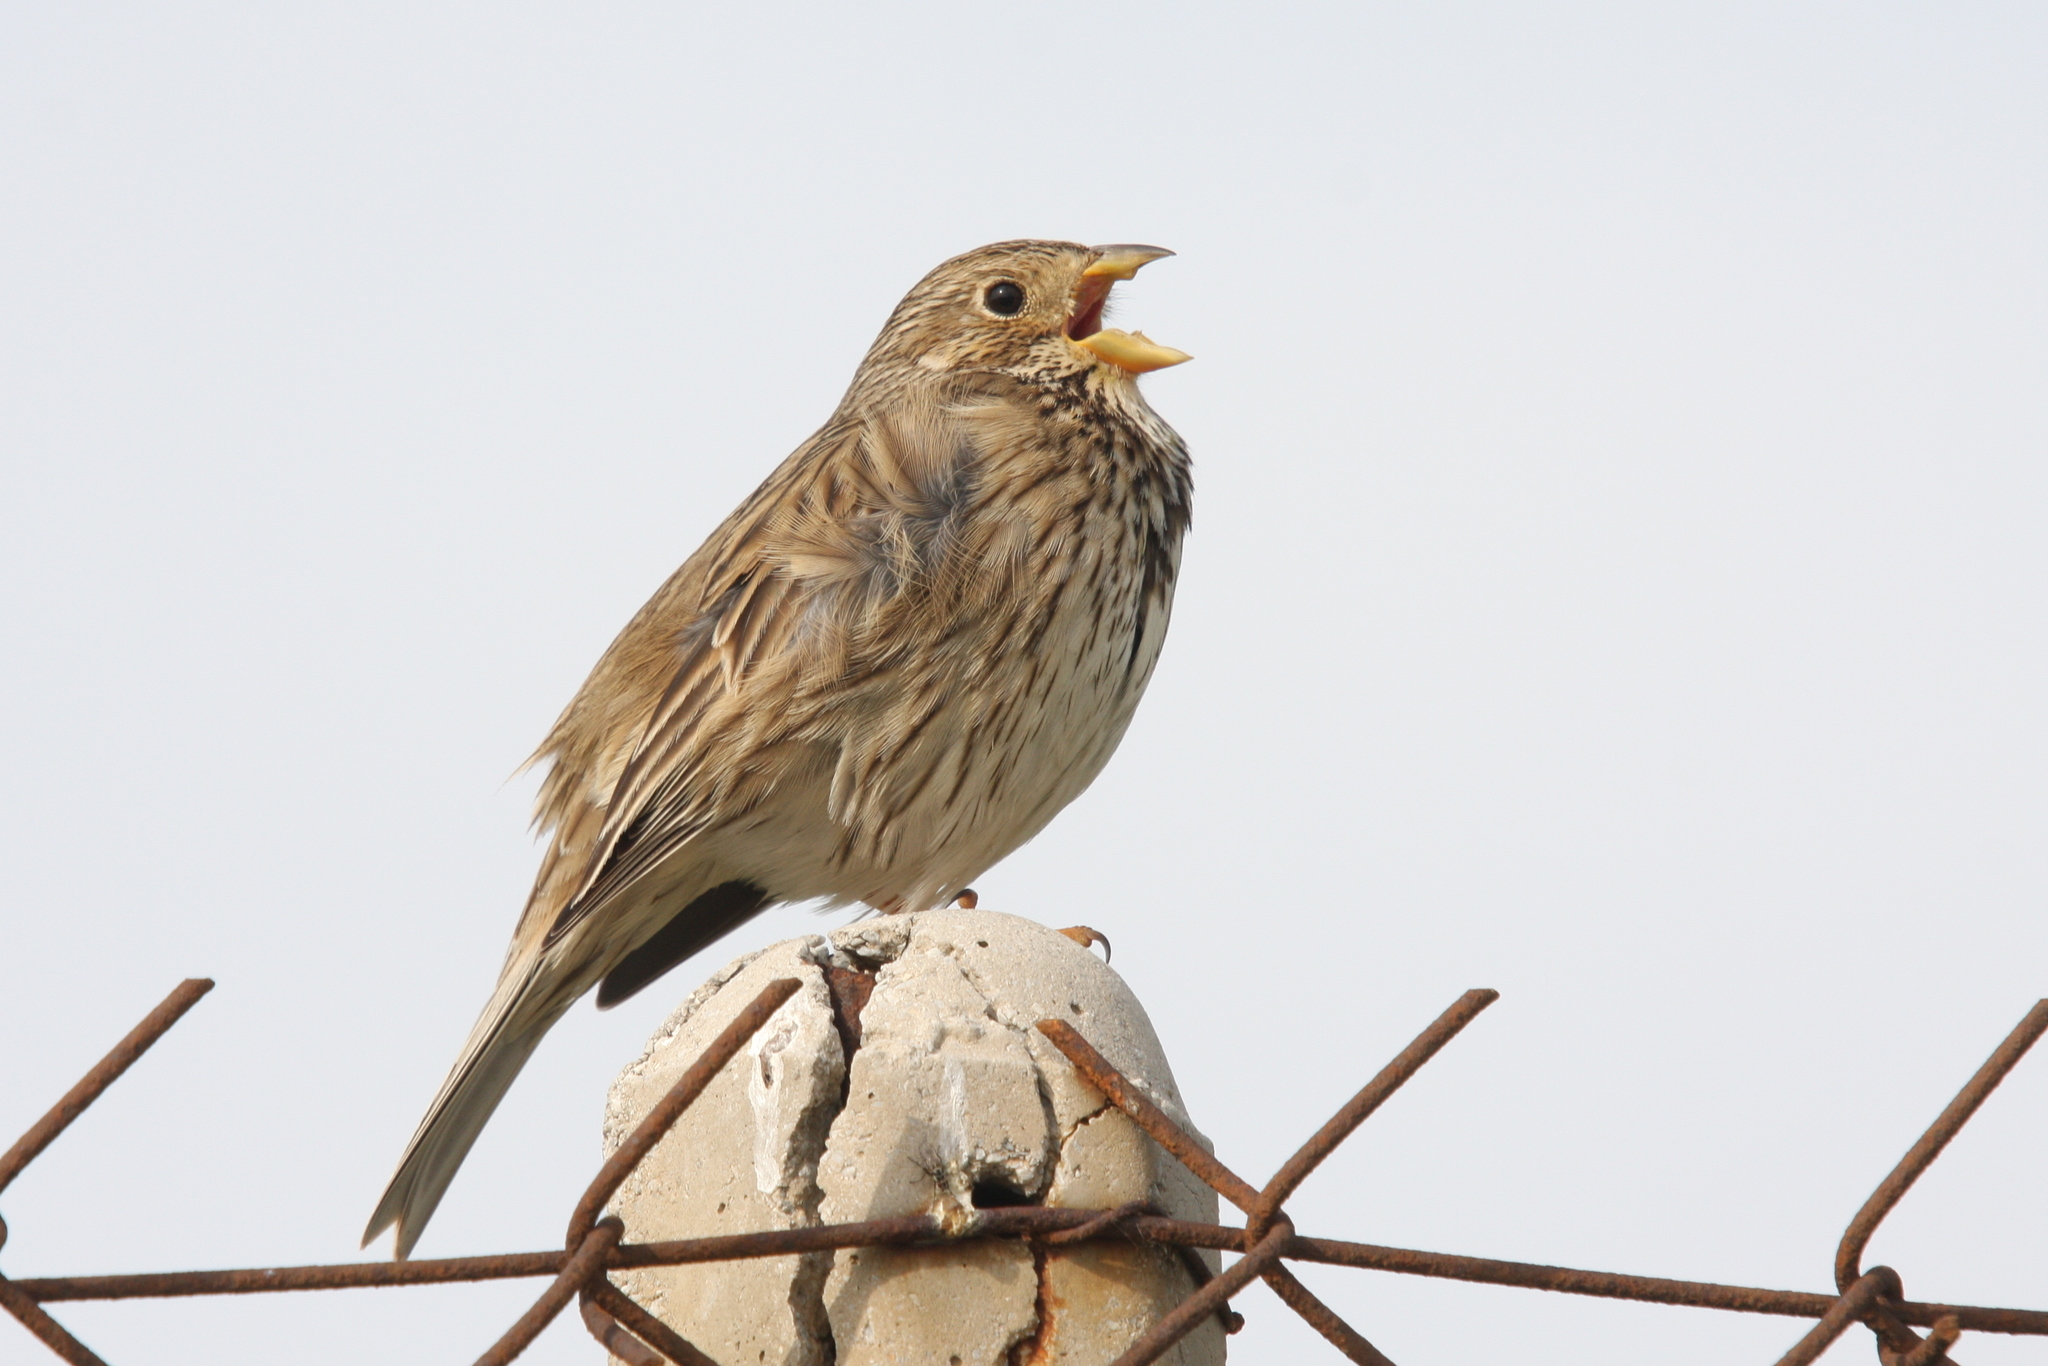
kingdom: Animalia
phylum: Chordata
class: Aves
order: Passeriformes
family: Emberizidae
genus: Emberiza
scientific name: Emberiza calandra
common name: Corn bunting
